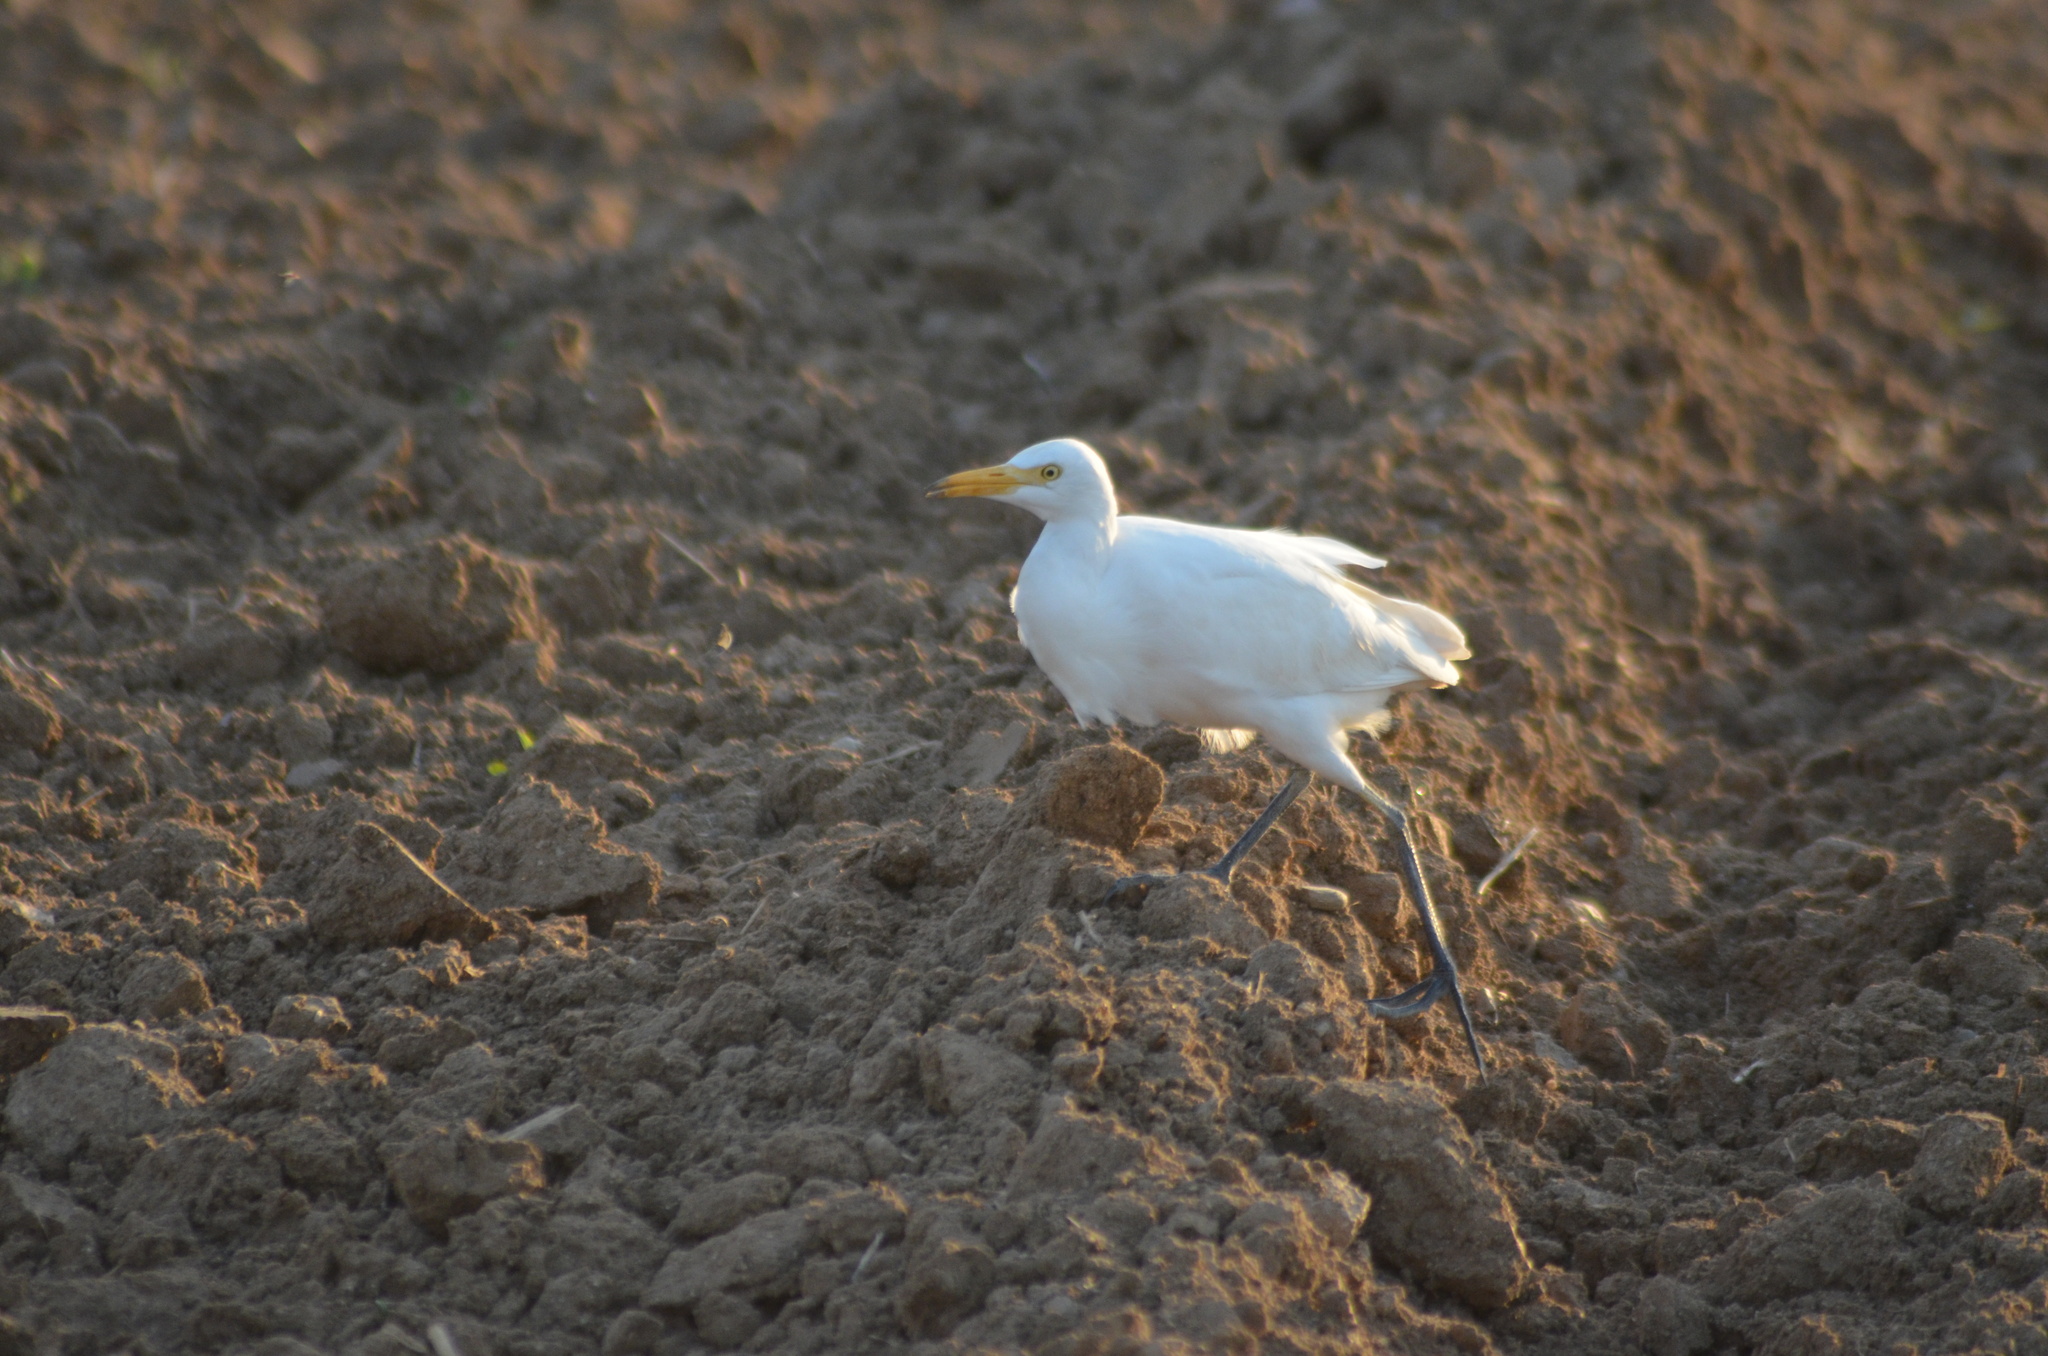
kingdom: Animalia
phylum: Chordata
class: Aves
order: Pelecaniformes
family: Ardeidae
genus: Bubulcus
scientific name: Bubulcus ibis
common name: Cattle egret
